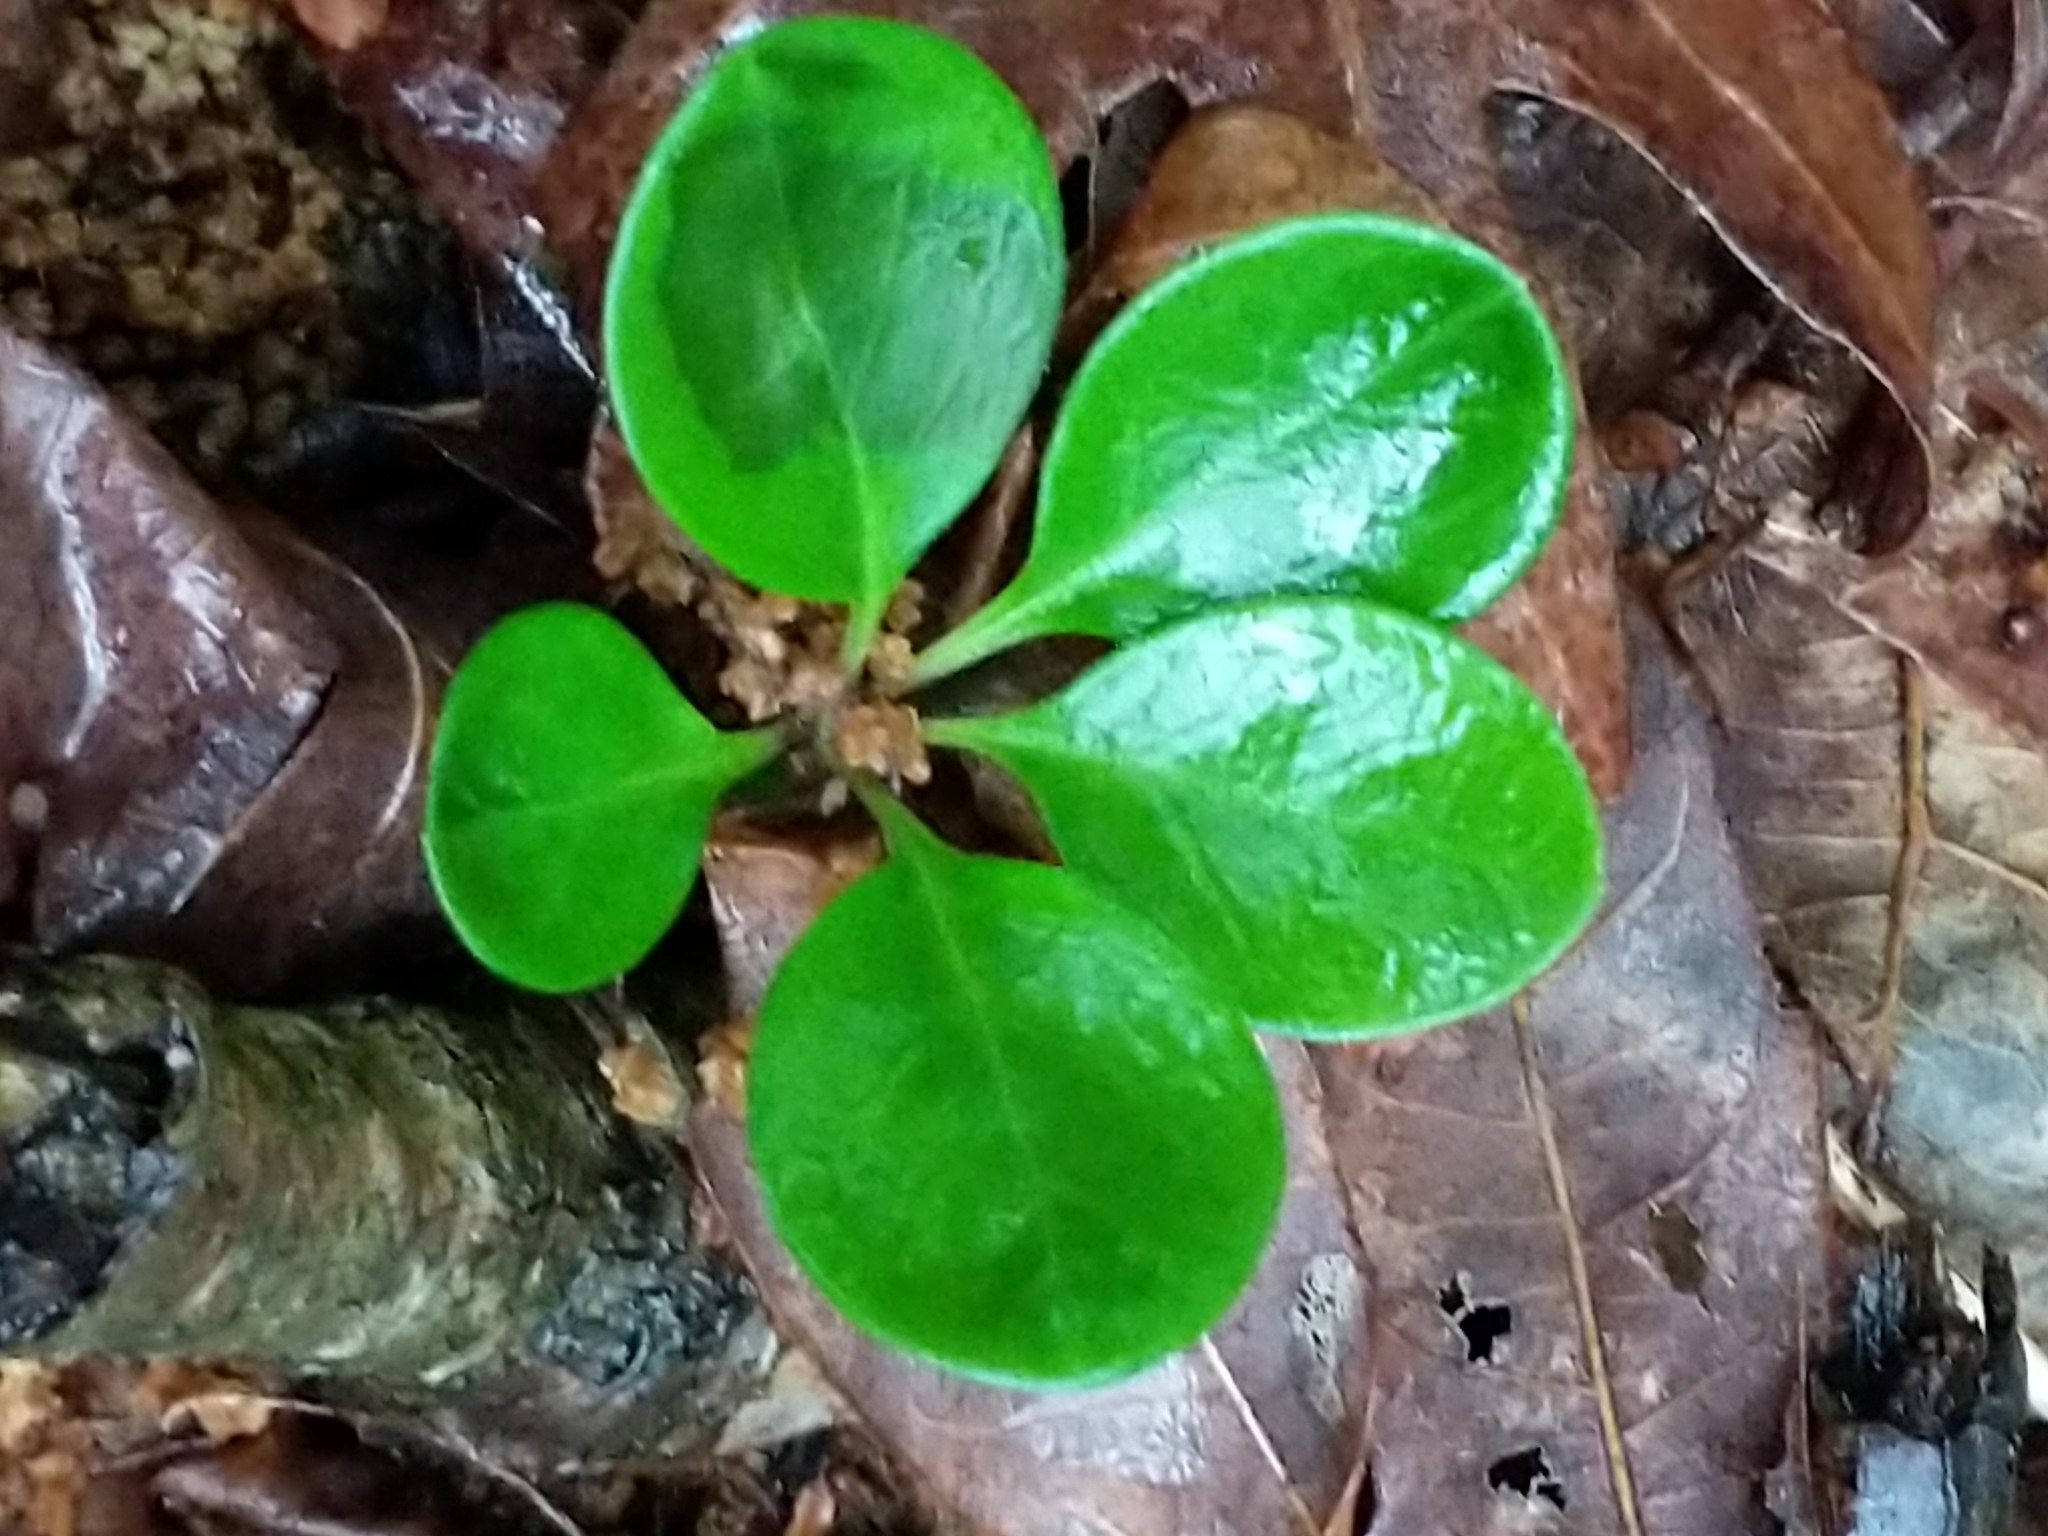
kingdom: Plantae
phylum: Tracheophyta
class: Magnoliopsida
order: Fabales
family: Polygalaceae
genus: Polygaloides
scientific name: Polygaloides paucifolia
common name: Bird-on-the-wing
